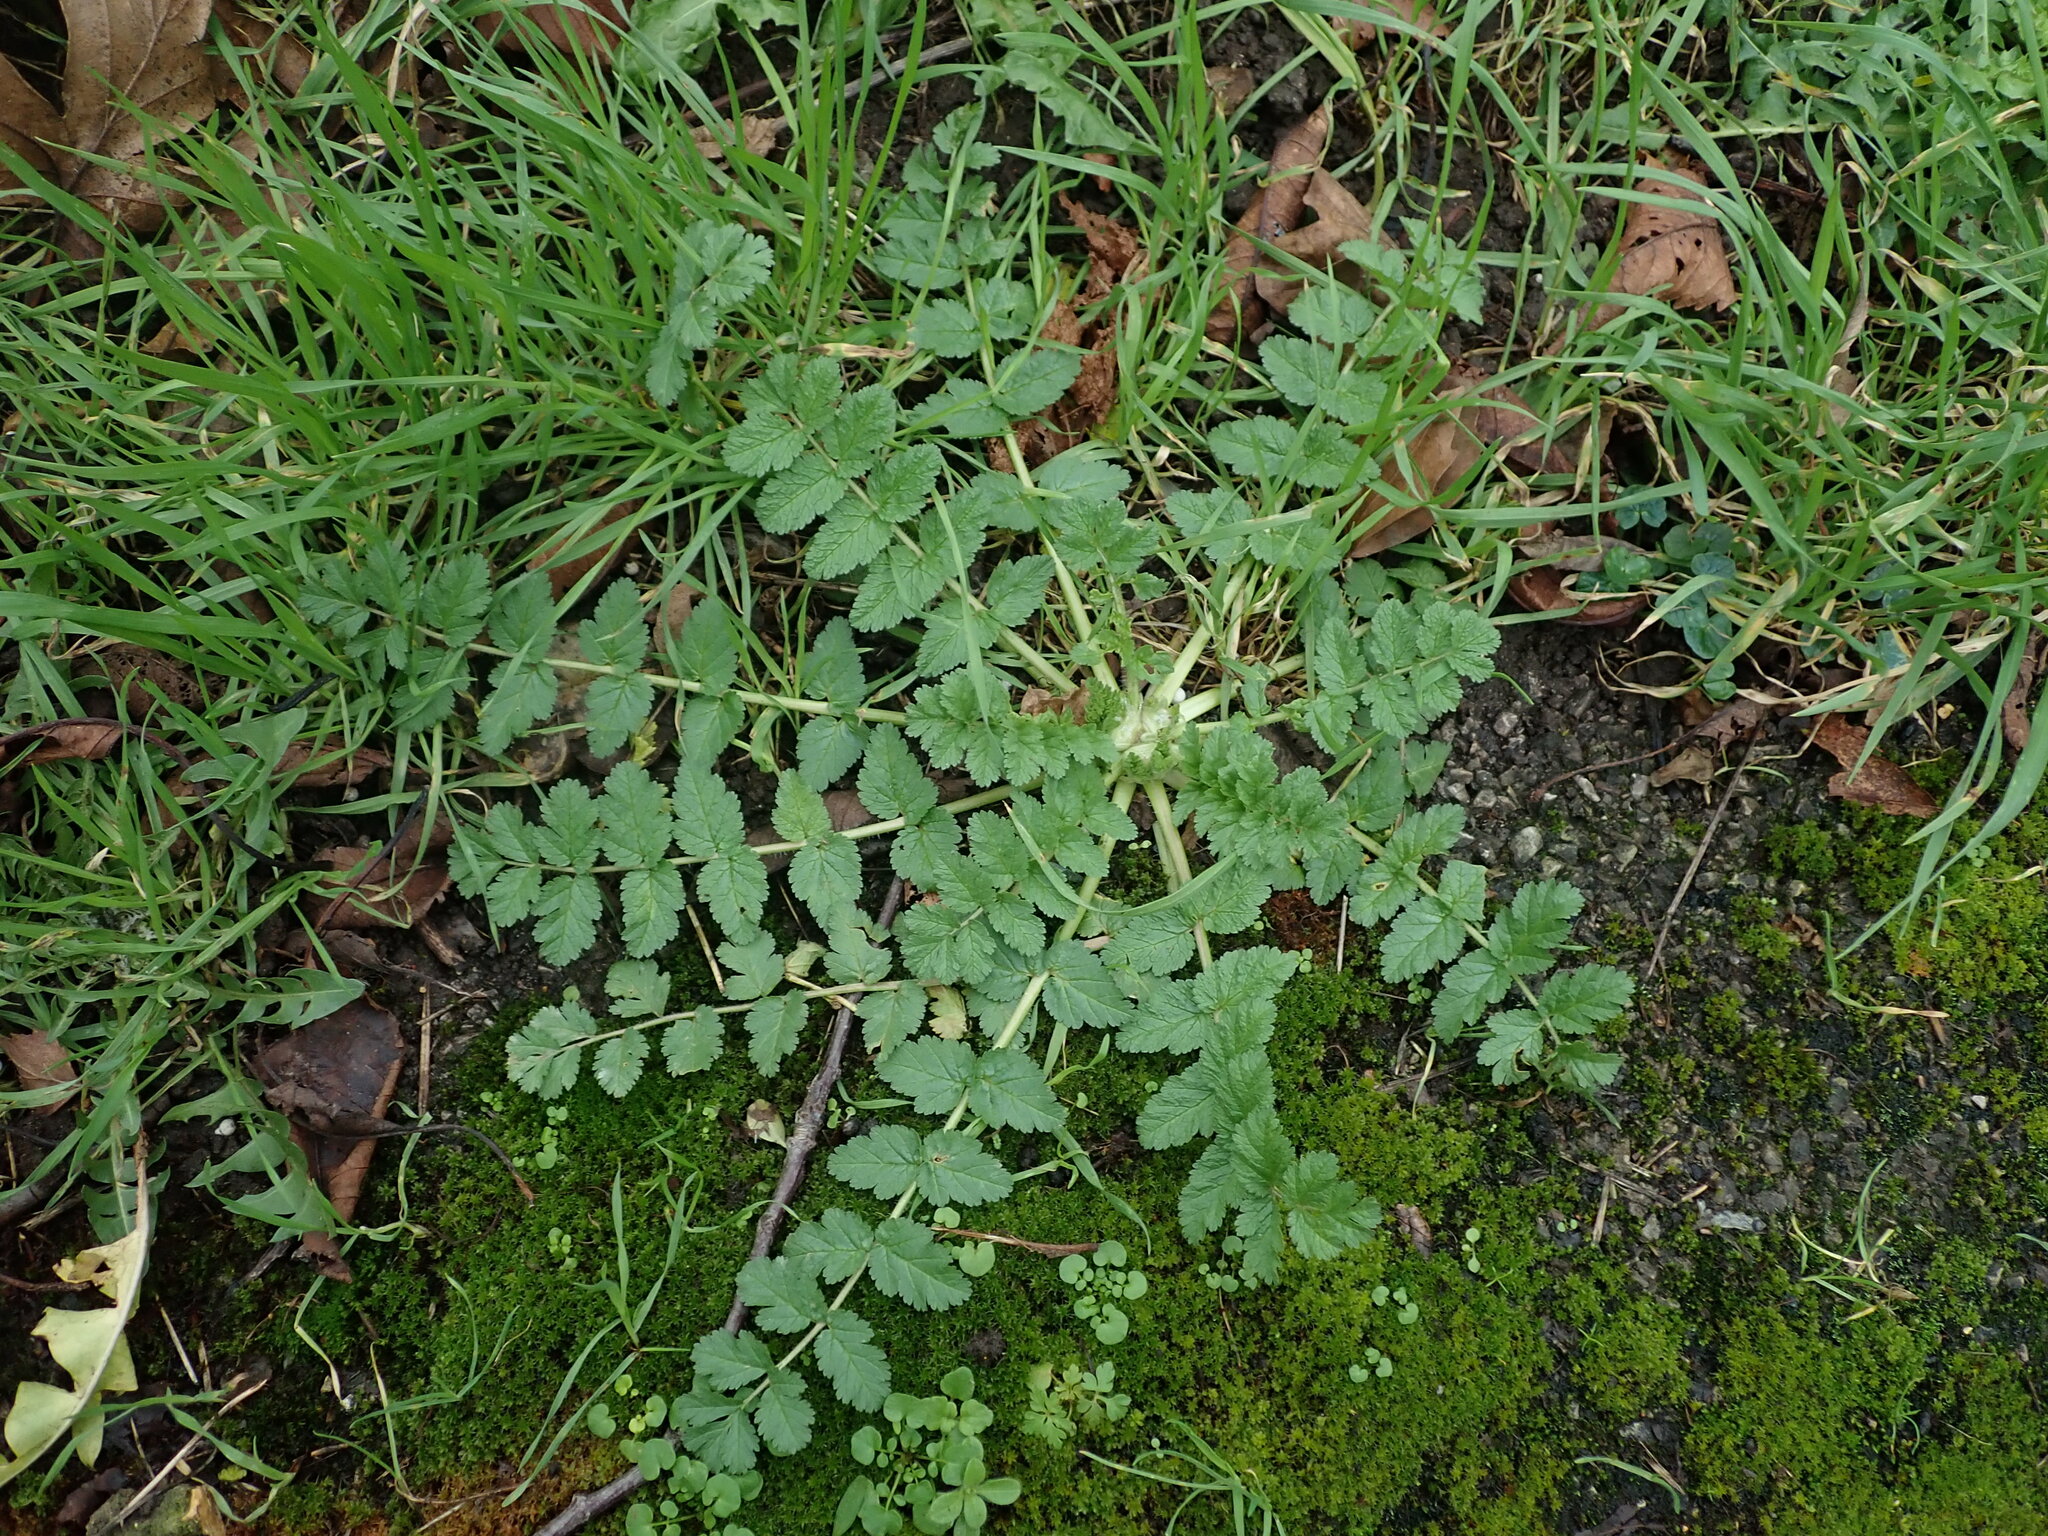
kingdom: Plantae
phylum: Tracheophyta
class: Magnoliopsida
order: Geraniales
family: Geraniaceae
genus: Erodium
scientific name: Erodium moschatum
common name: Musk stork's-bill
